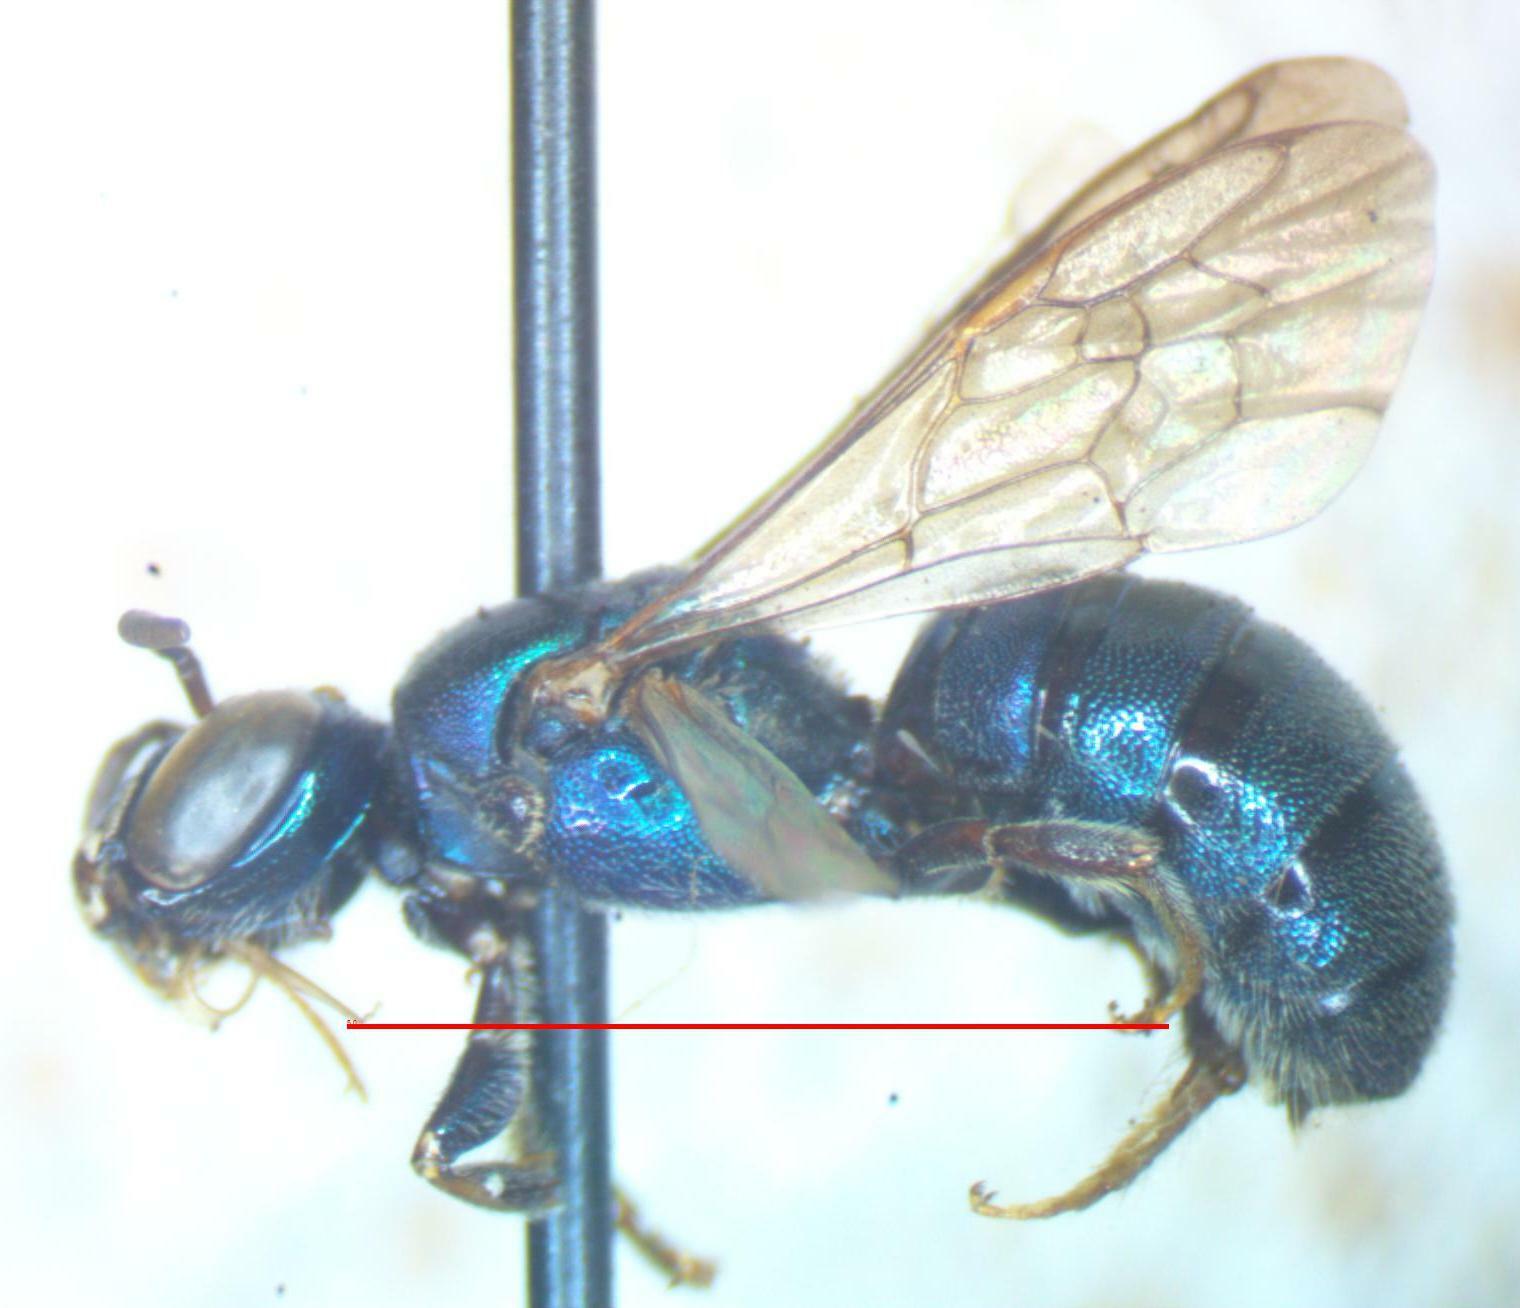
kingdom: Animalia
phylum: Arthropoda
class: Insecta
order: Hymenoptera
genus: Calloceratina
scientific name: Calloceratina
